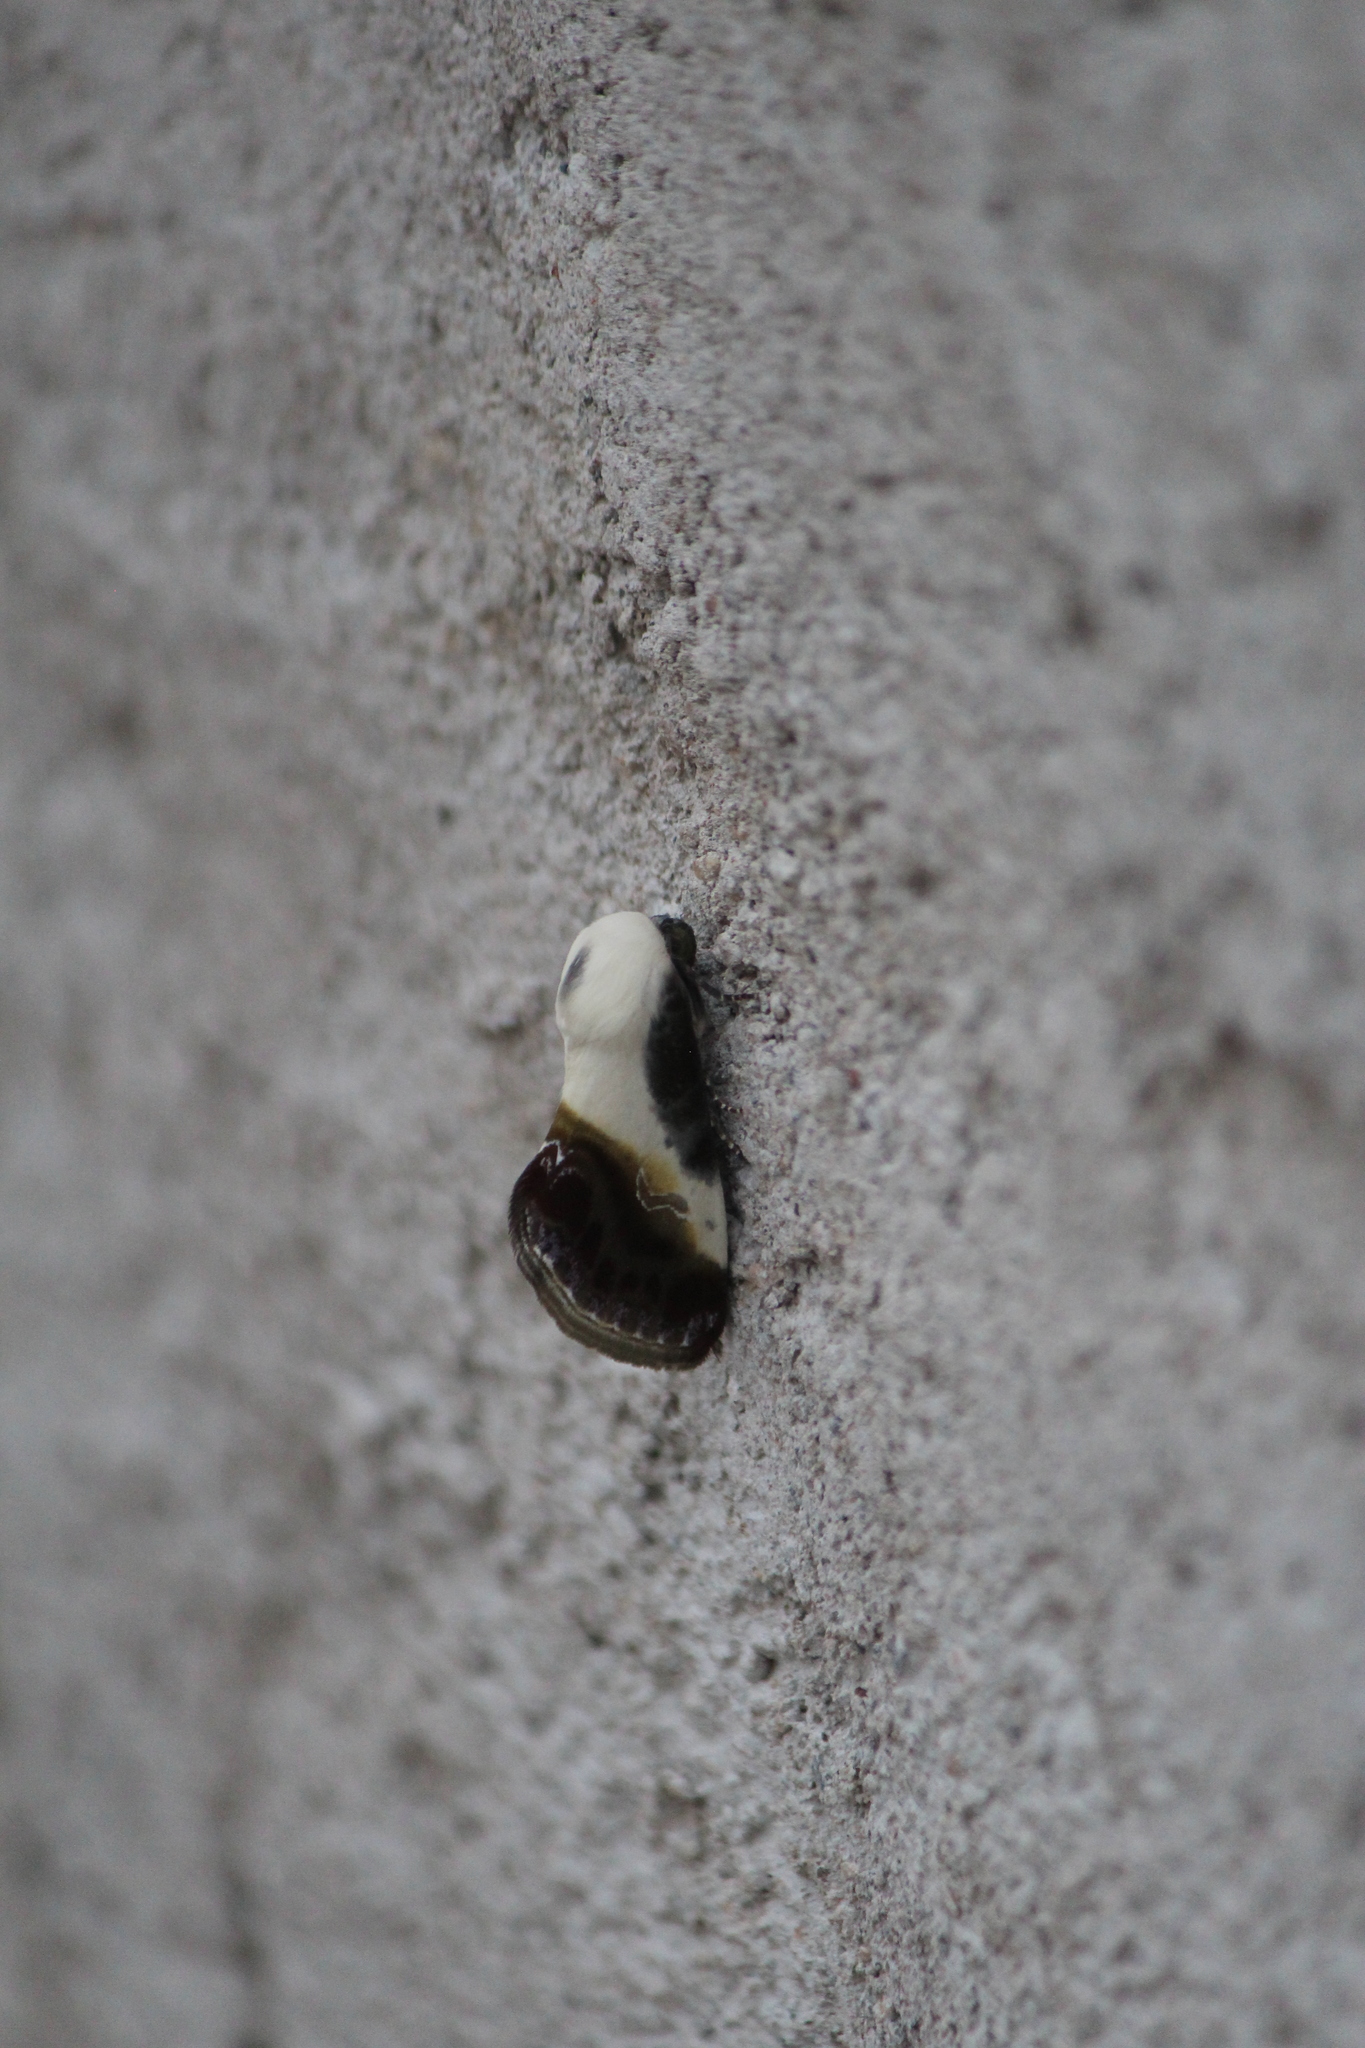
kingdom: Animalia
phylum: Arthropoda
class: Insecta
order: Lepidoptera
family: Noctuidae
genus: Acontia
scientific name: Acontia jaliscana
